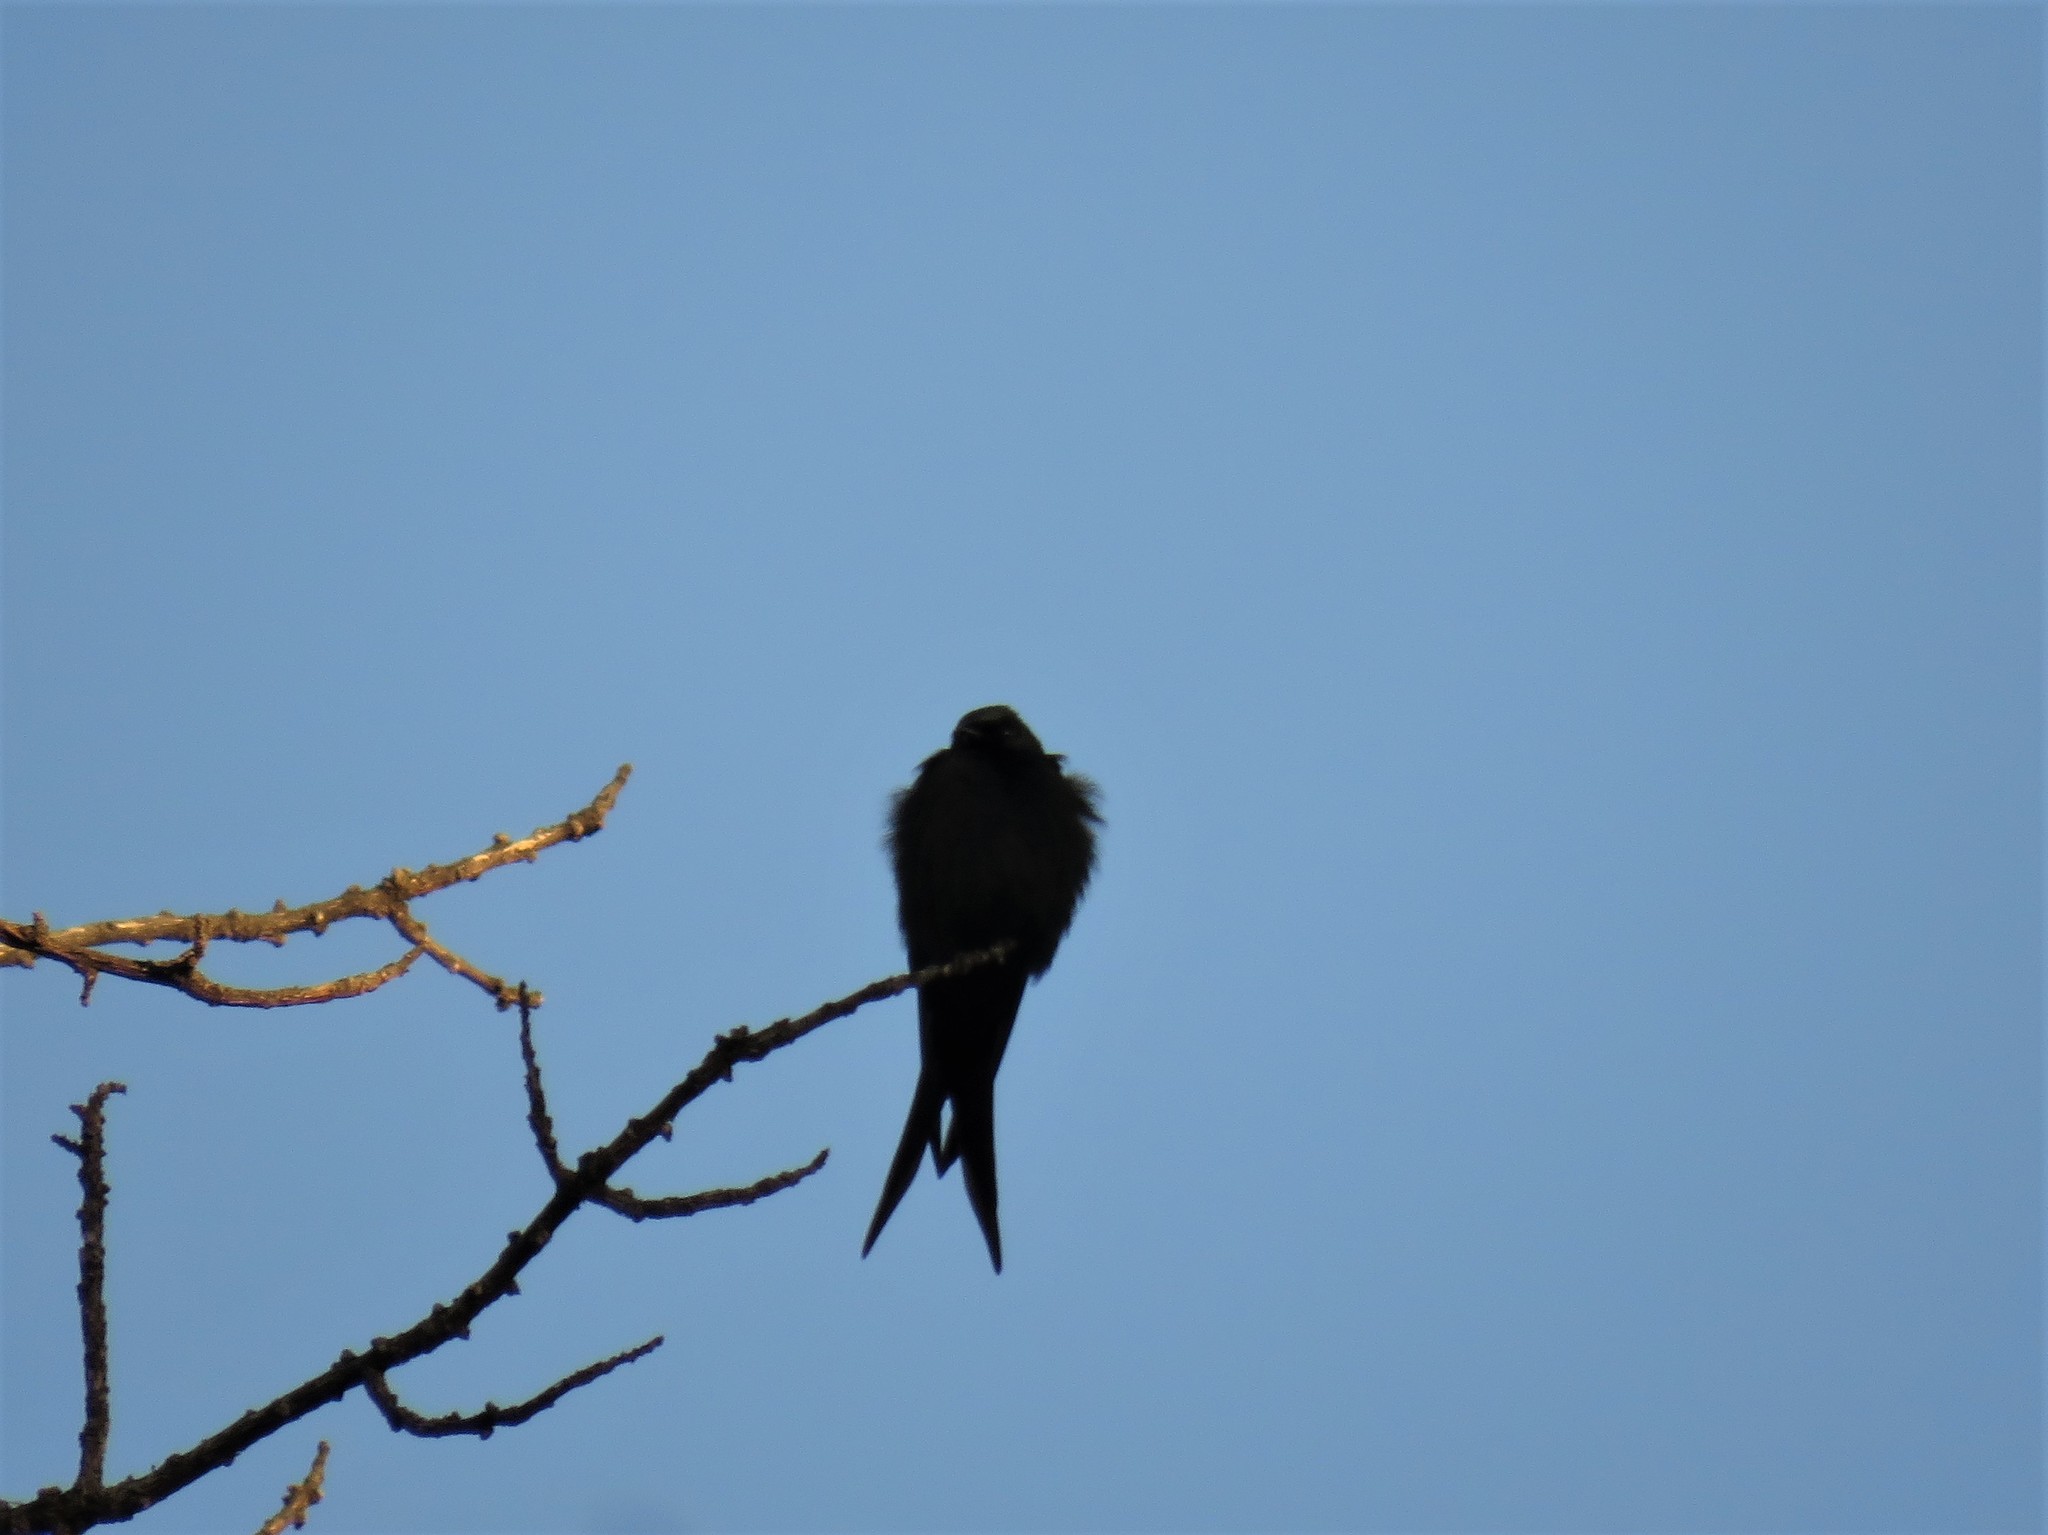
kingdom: Animalia
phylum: Chordata
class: Aves
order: Passeriformes
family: Hirundinidae
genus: Psalidoprocne
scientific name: Psalidoprocne pristoptera
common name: Black saw-wing
